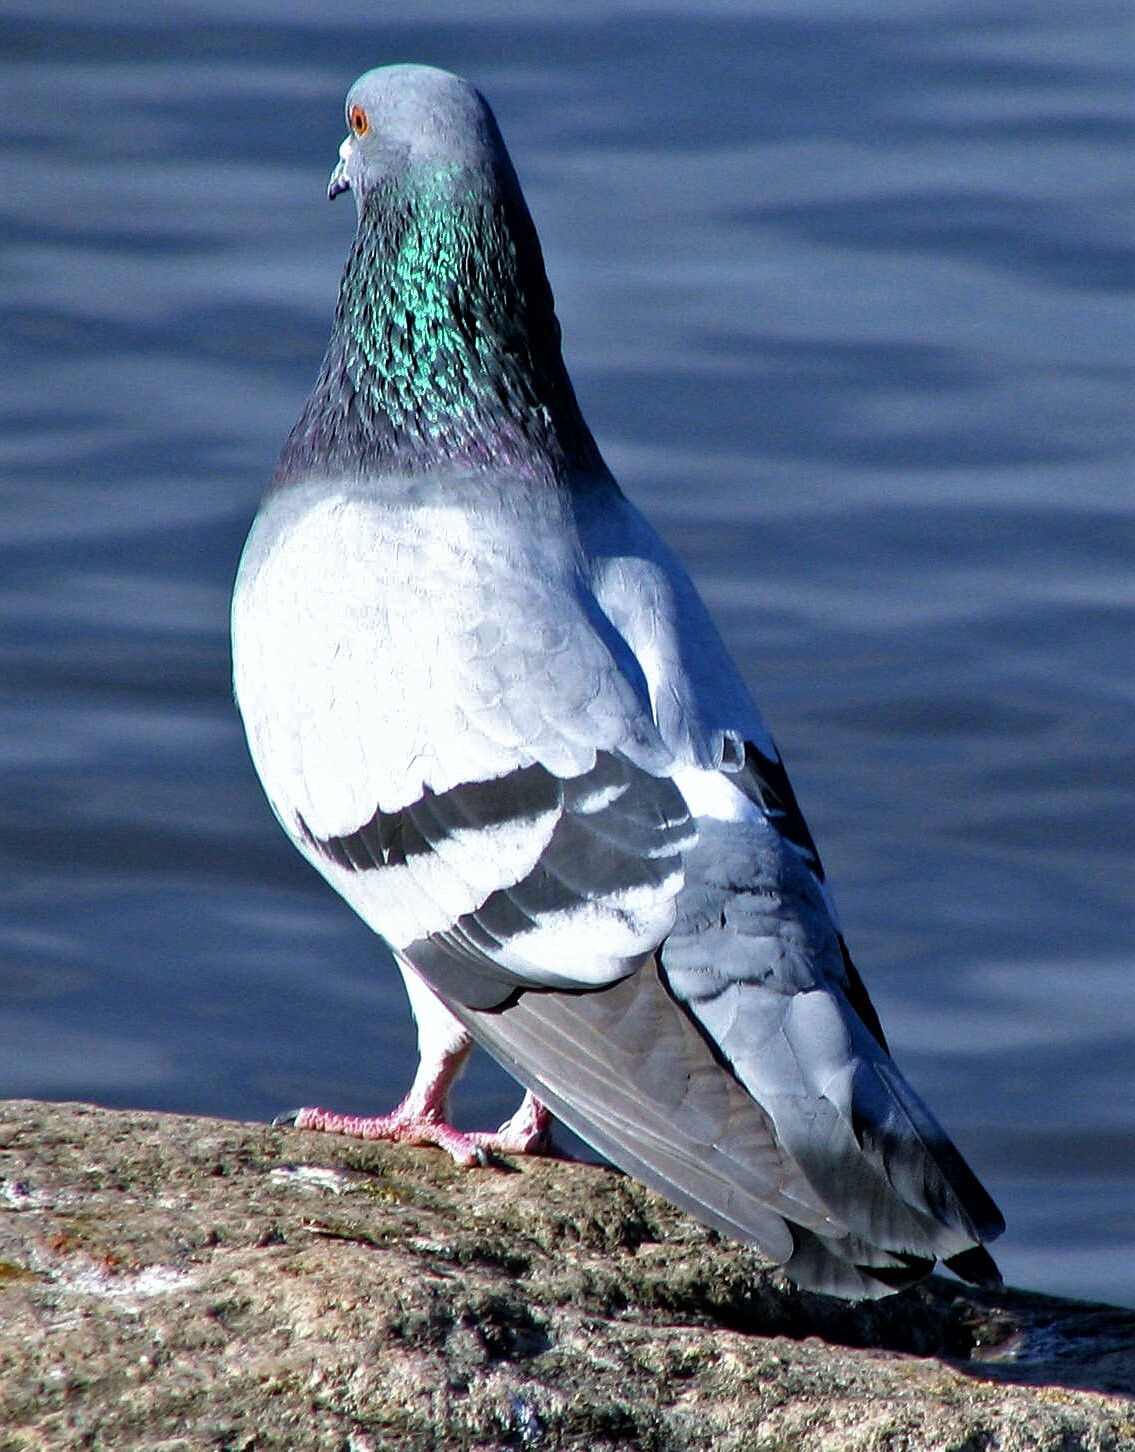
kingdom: Animalia
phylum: Chordata
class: Aves
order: Columbiformes
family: Columbidae
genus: Columba
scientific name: Columba livia
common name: Rock pigeon
